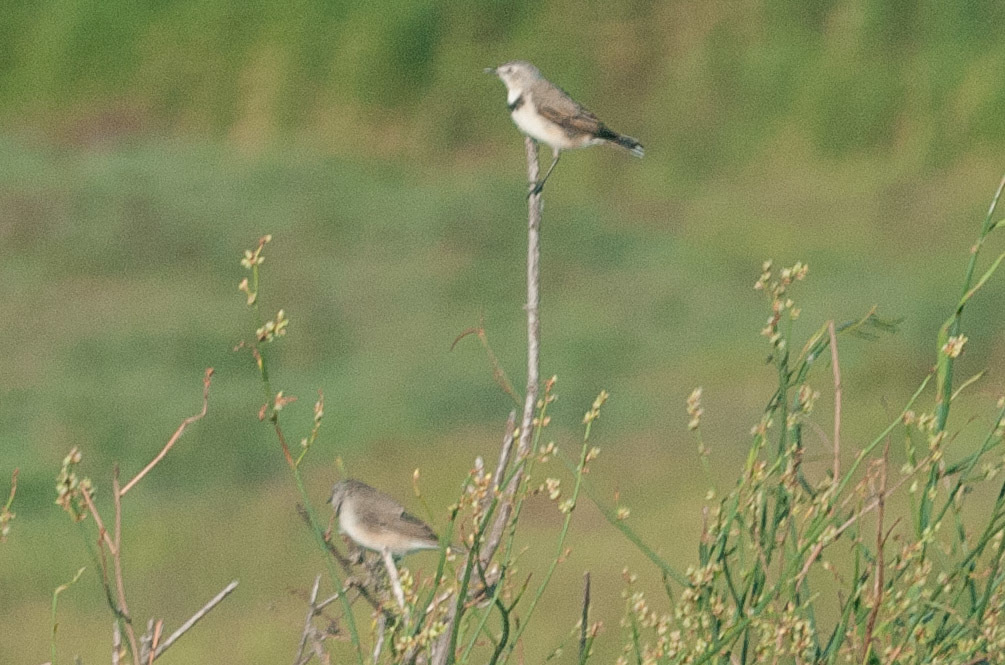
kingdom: Animalia
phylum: Chordata
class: Aves
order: Passeriformes
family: Meliphagidae
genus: Epthianura
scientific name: Epthianura albifrons
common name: White-fronted chat
